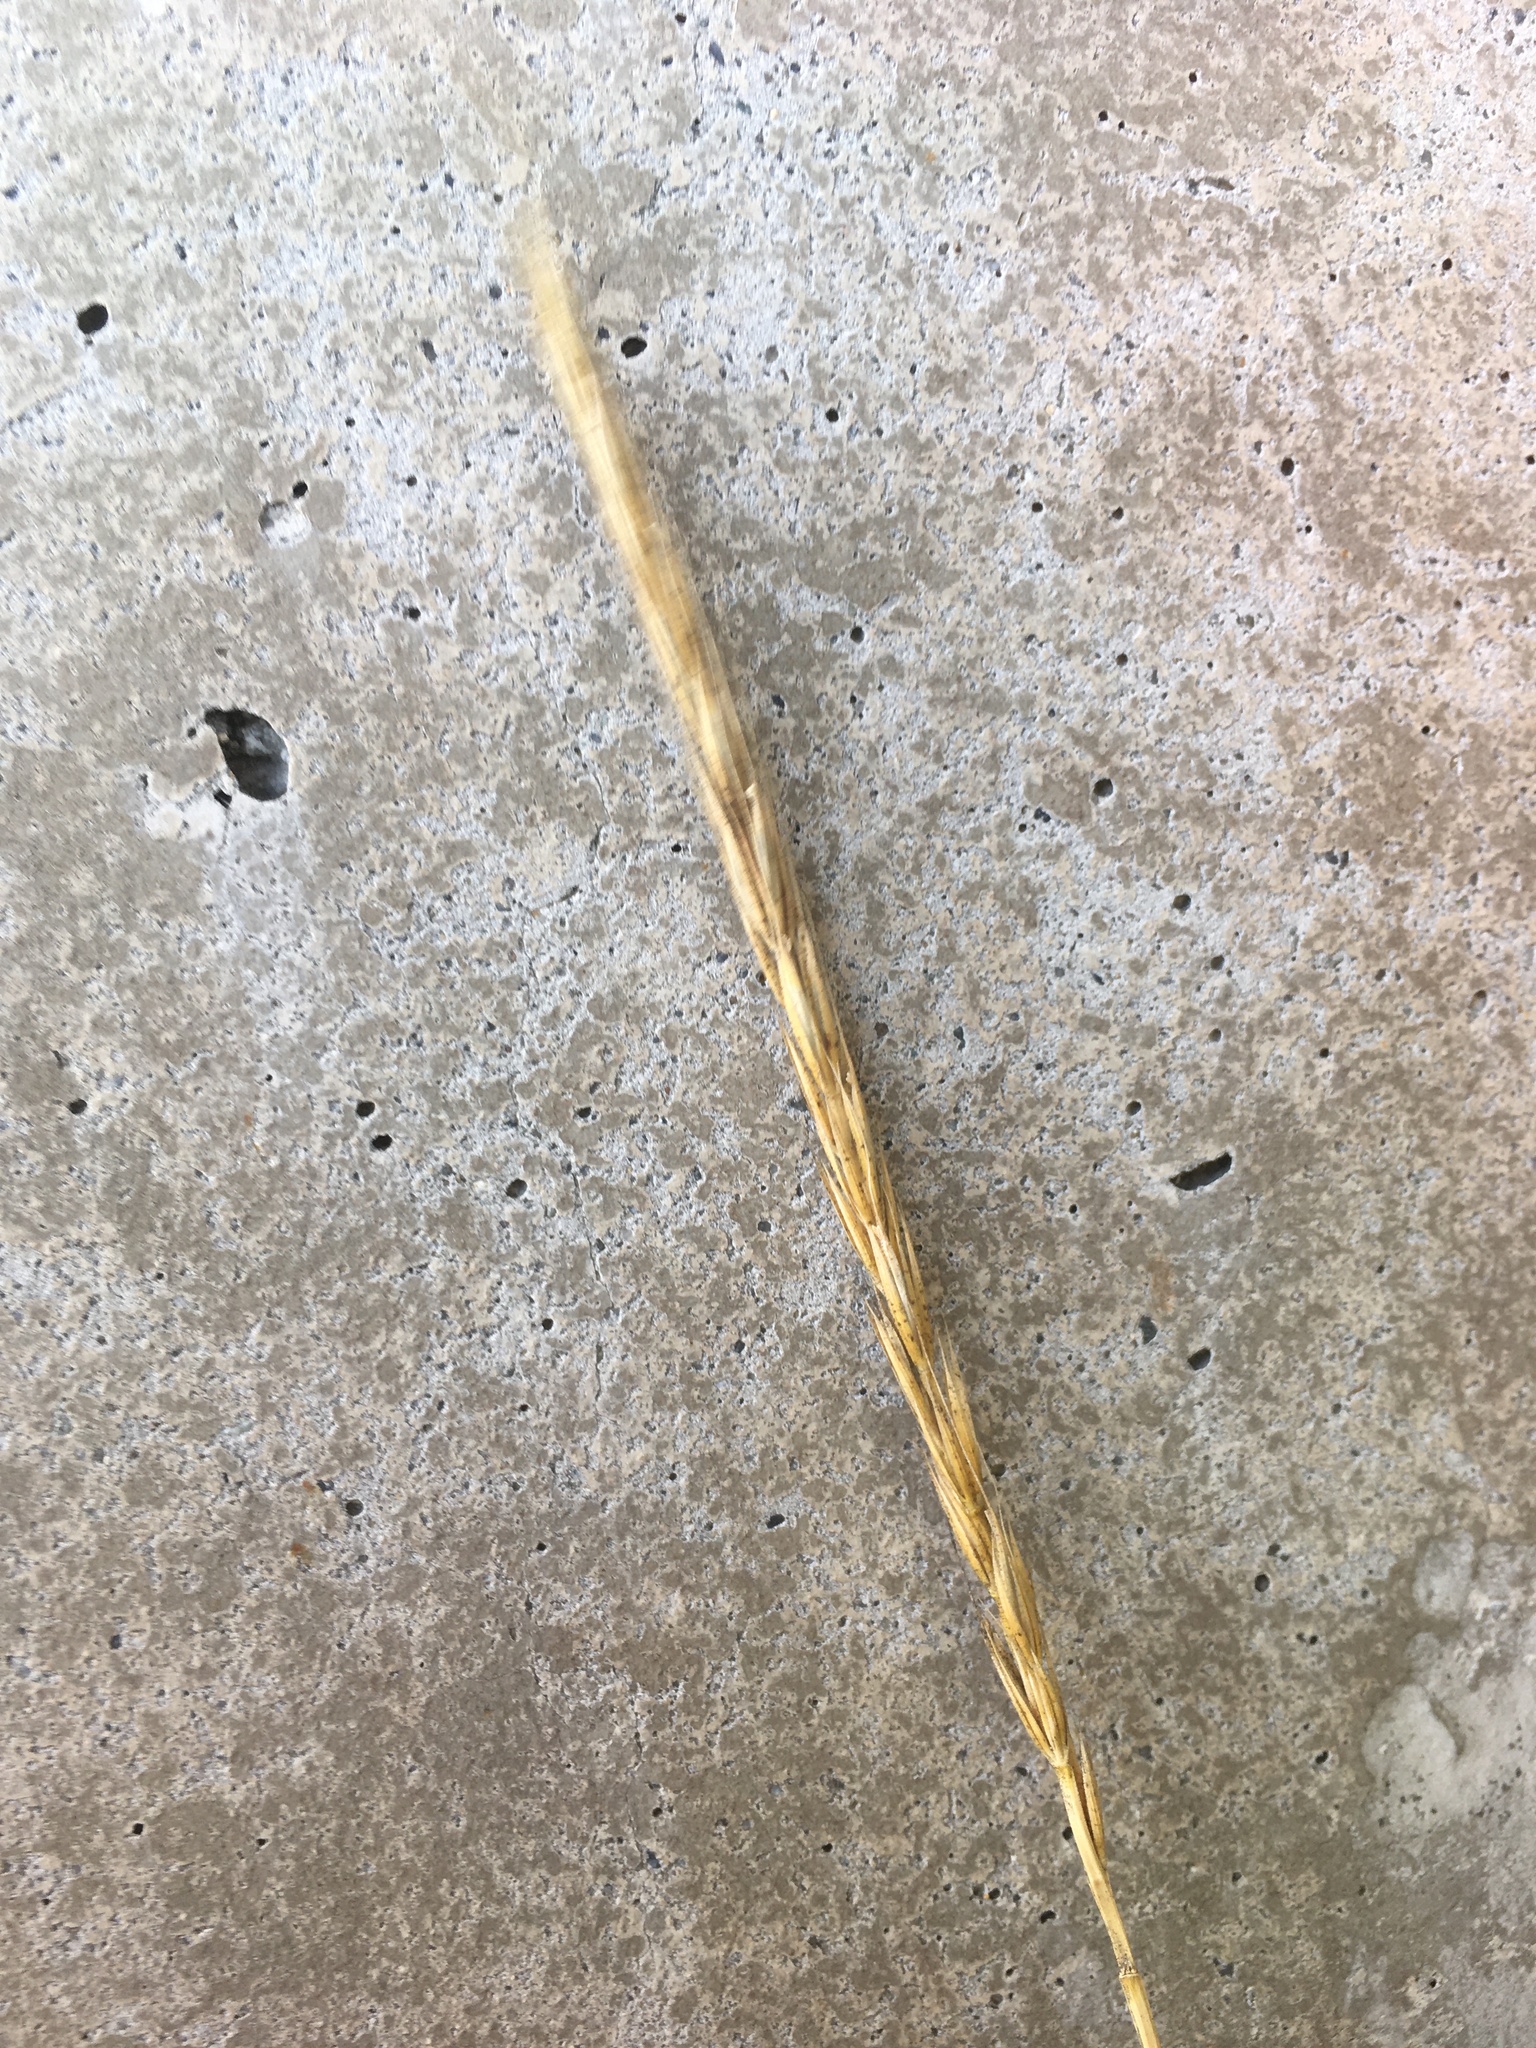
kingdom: Plantae
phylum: Tracheophyta
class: Liliopsida
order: Poales
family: Poaceae
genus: Elymus
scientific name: Elymus glaucus
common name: Blue wild rye
